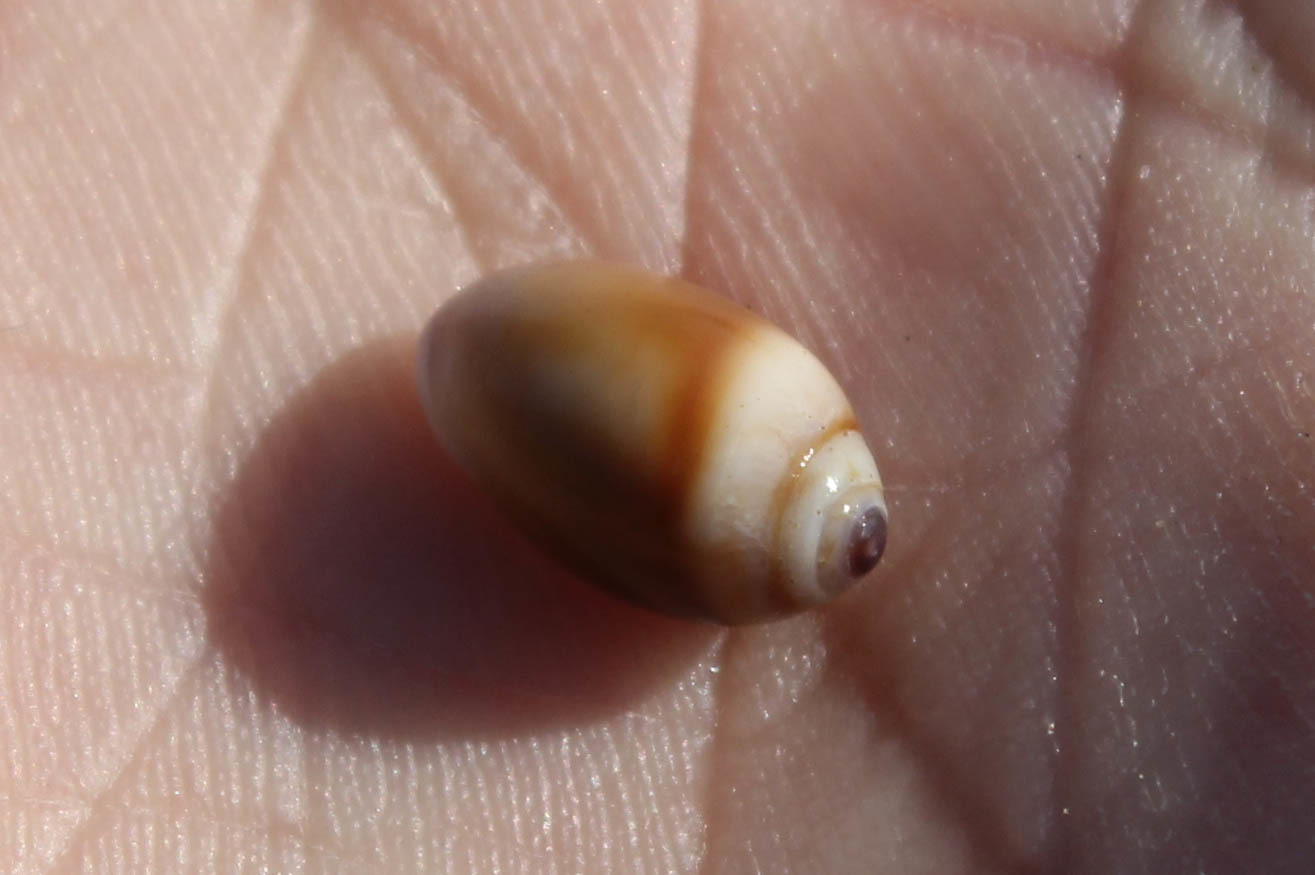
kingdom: Animalia
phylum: Mollusca
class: Gastropoda
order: Neogastropoda
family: Olividae
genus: Callianax
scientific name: Callianax biplicata
